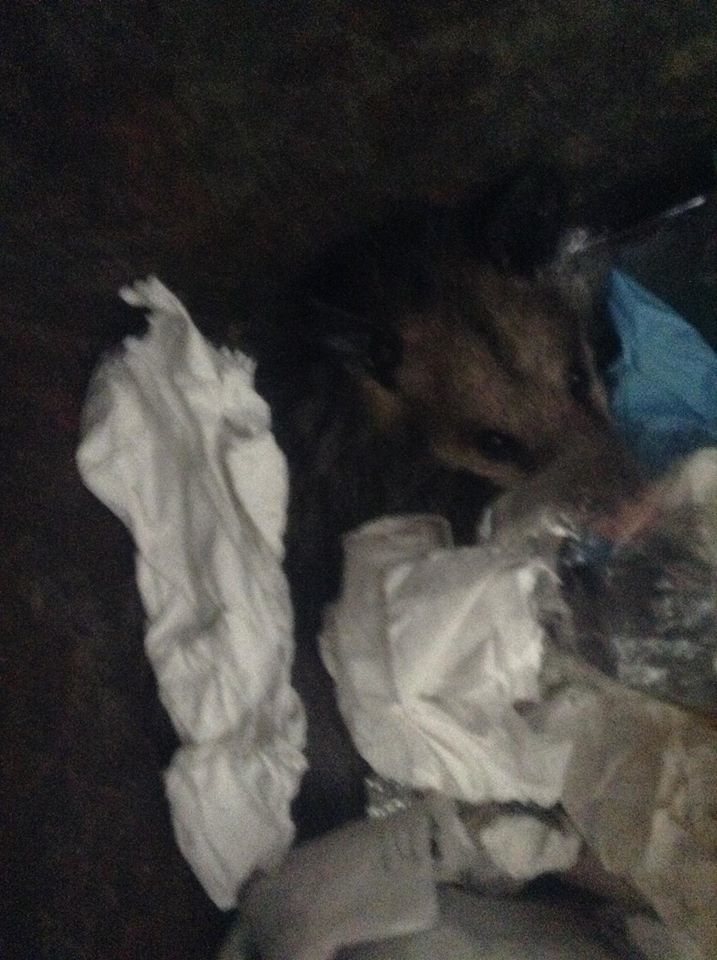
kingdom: Animalia
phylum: Chordata
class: Mammalia
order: Didelphimorphia
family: Didelphidae
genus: Didelphis
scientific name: Didelphis virginiana
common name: Virginia opossum
